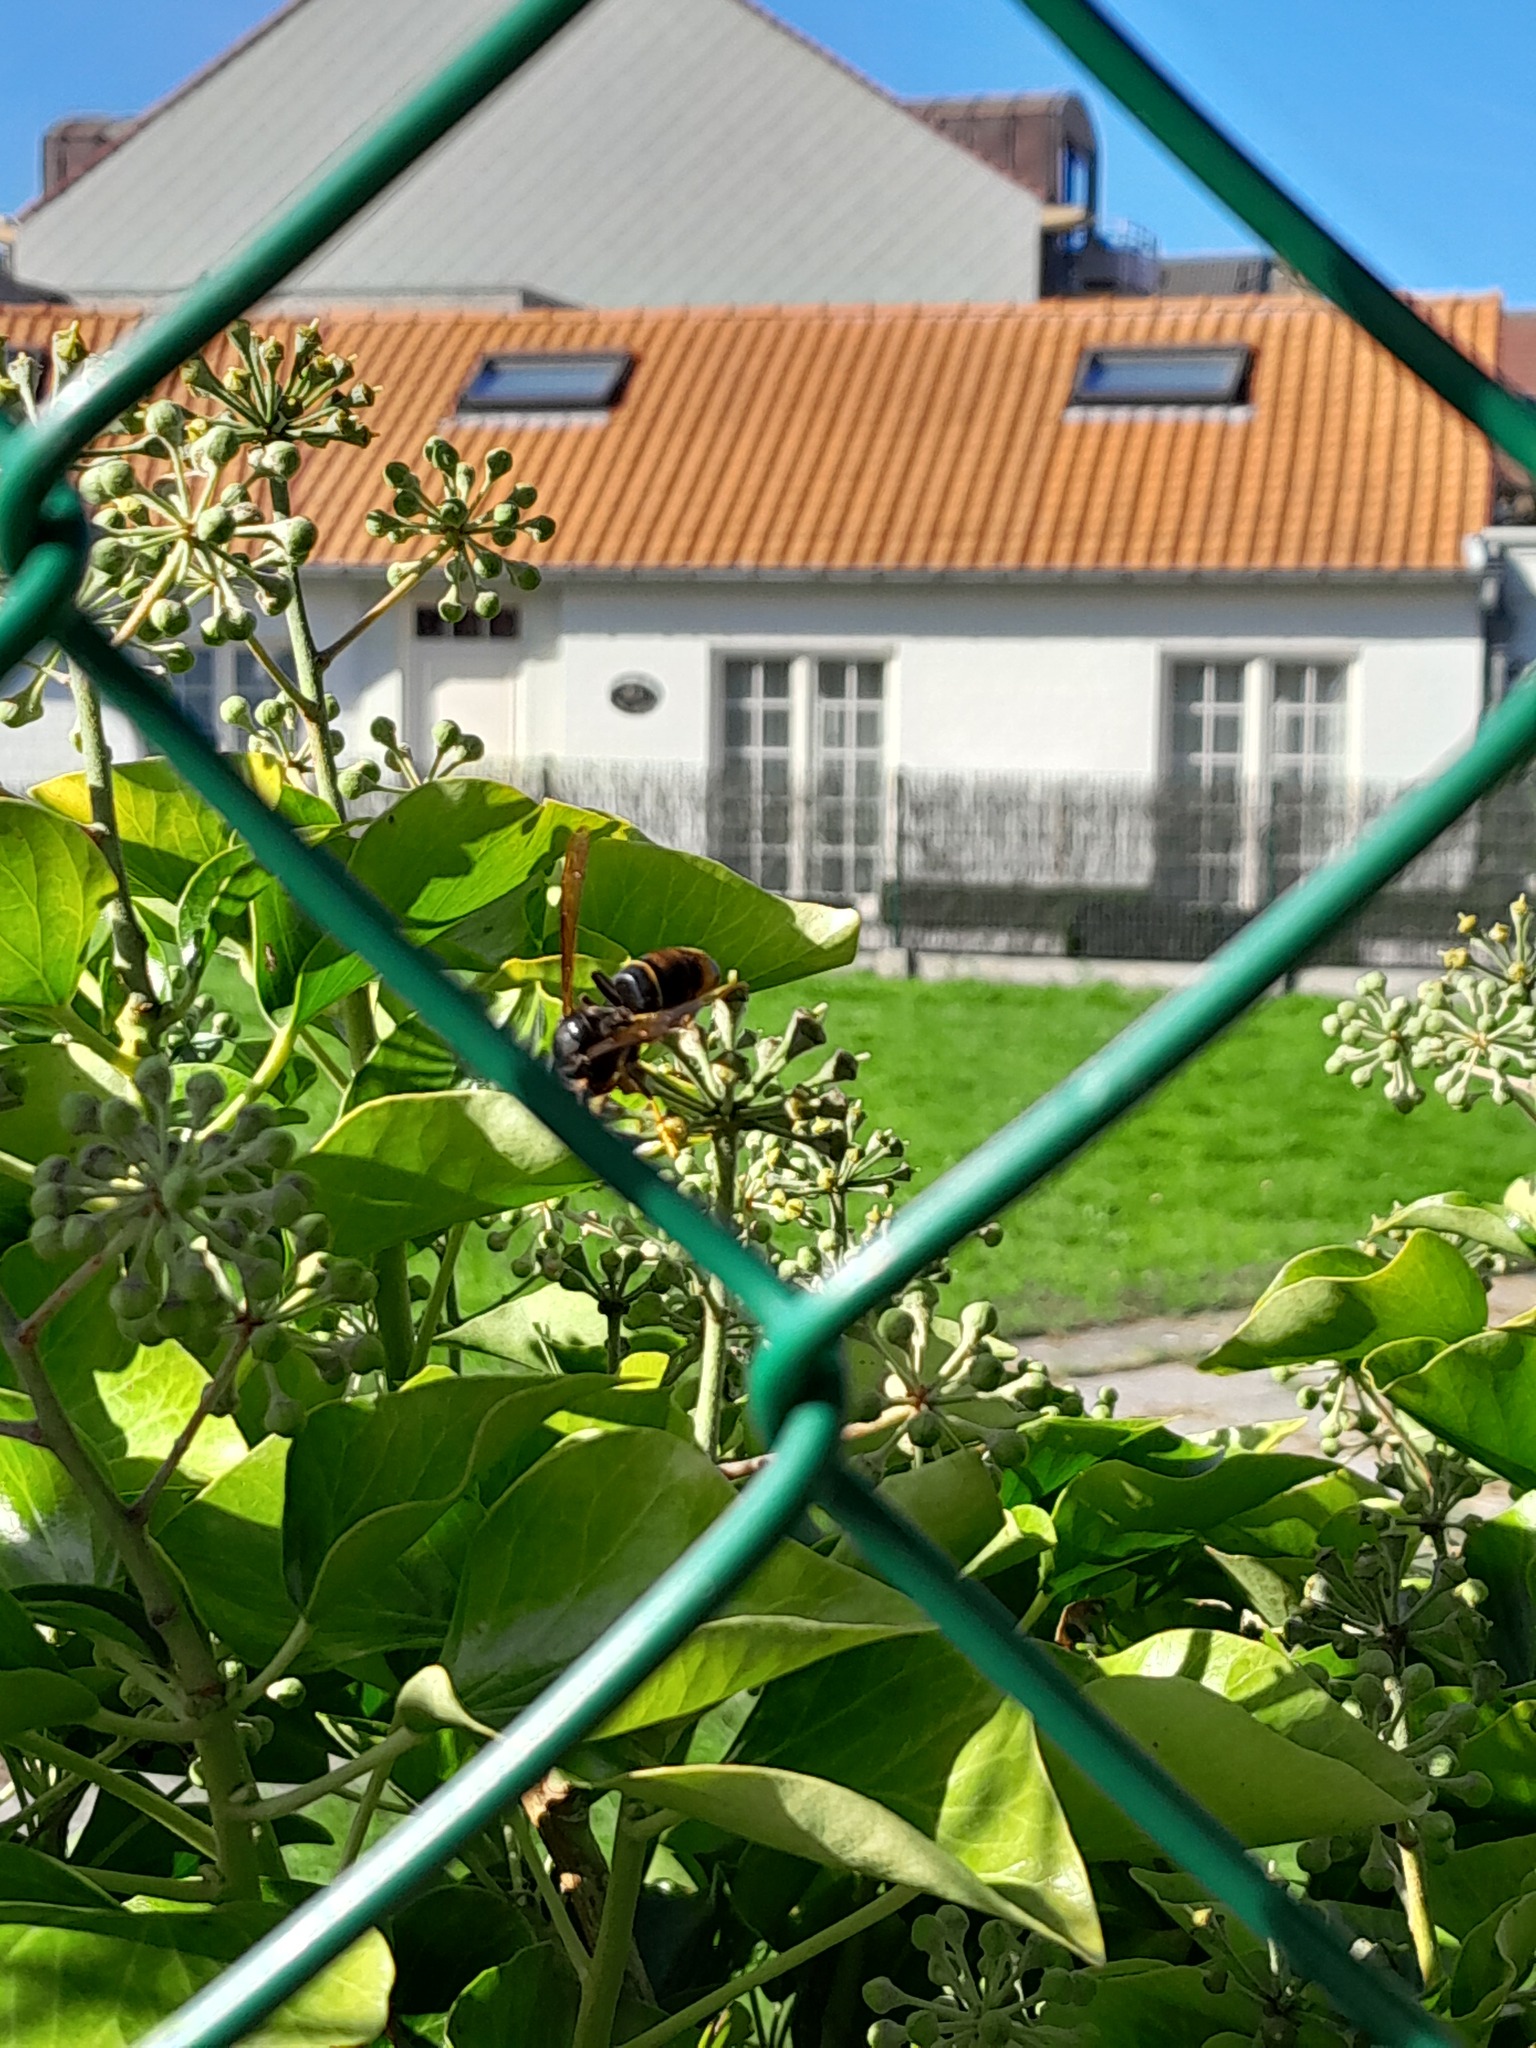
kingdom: Animalia
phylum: Arthropoda
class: Insecta
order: Hymenoptera
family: Vespidae
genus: Vespa
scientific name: Vespa velutina
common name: Asian hornet
